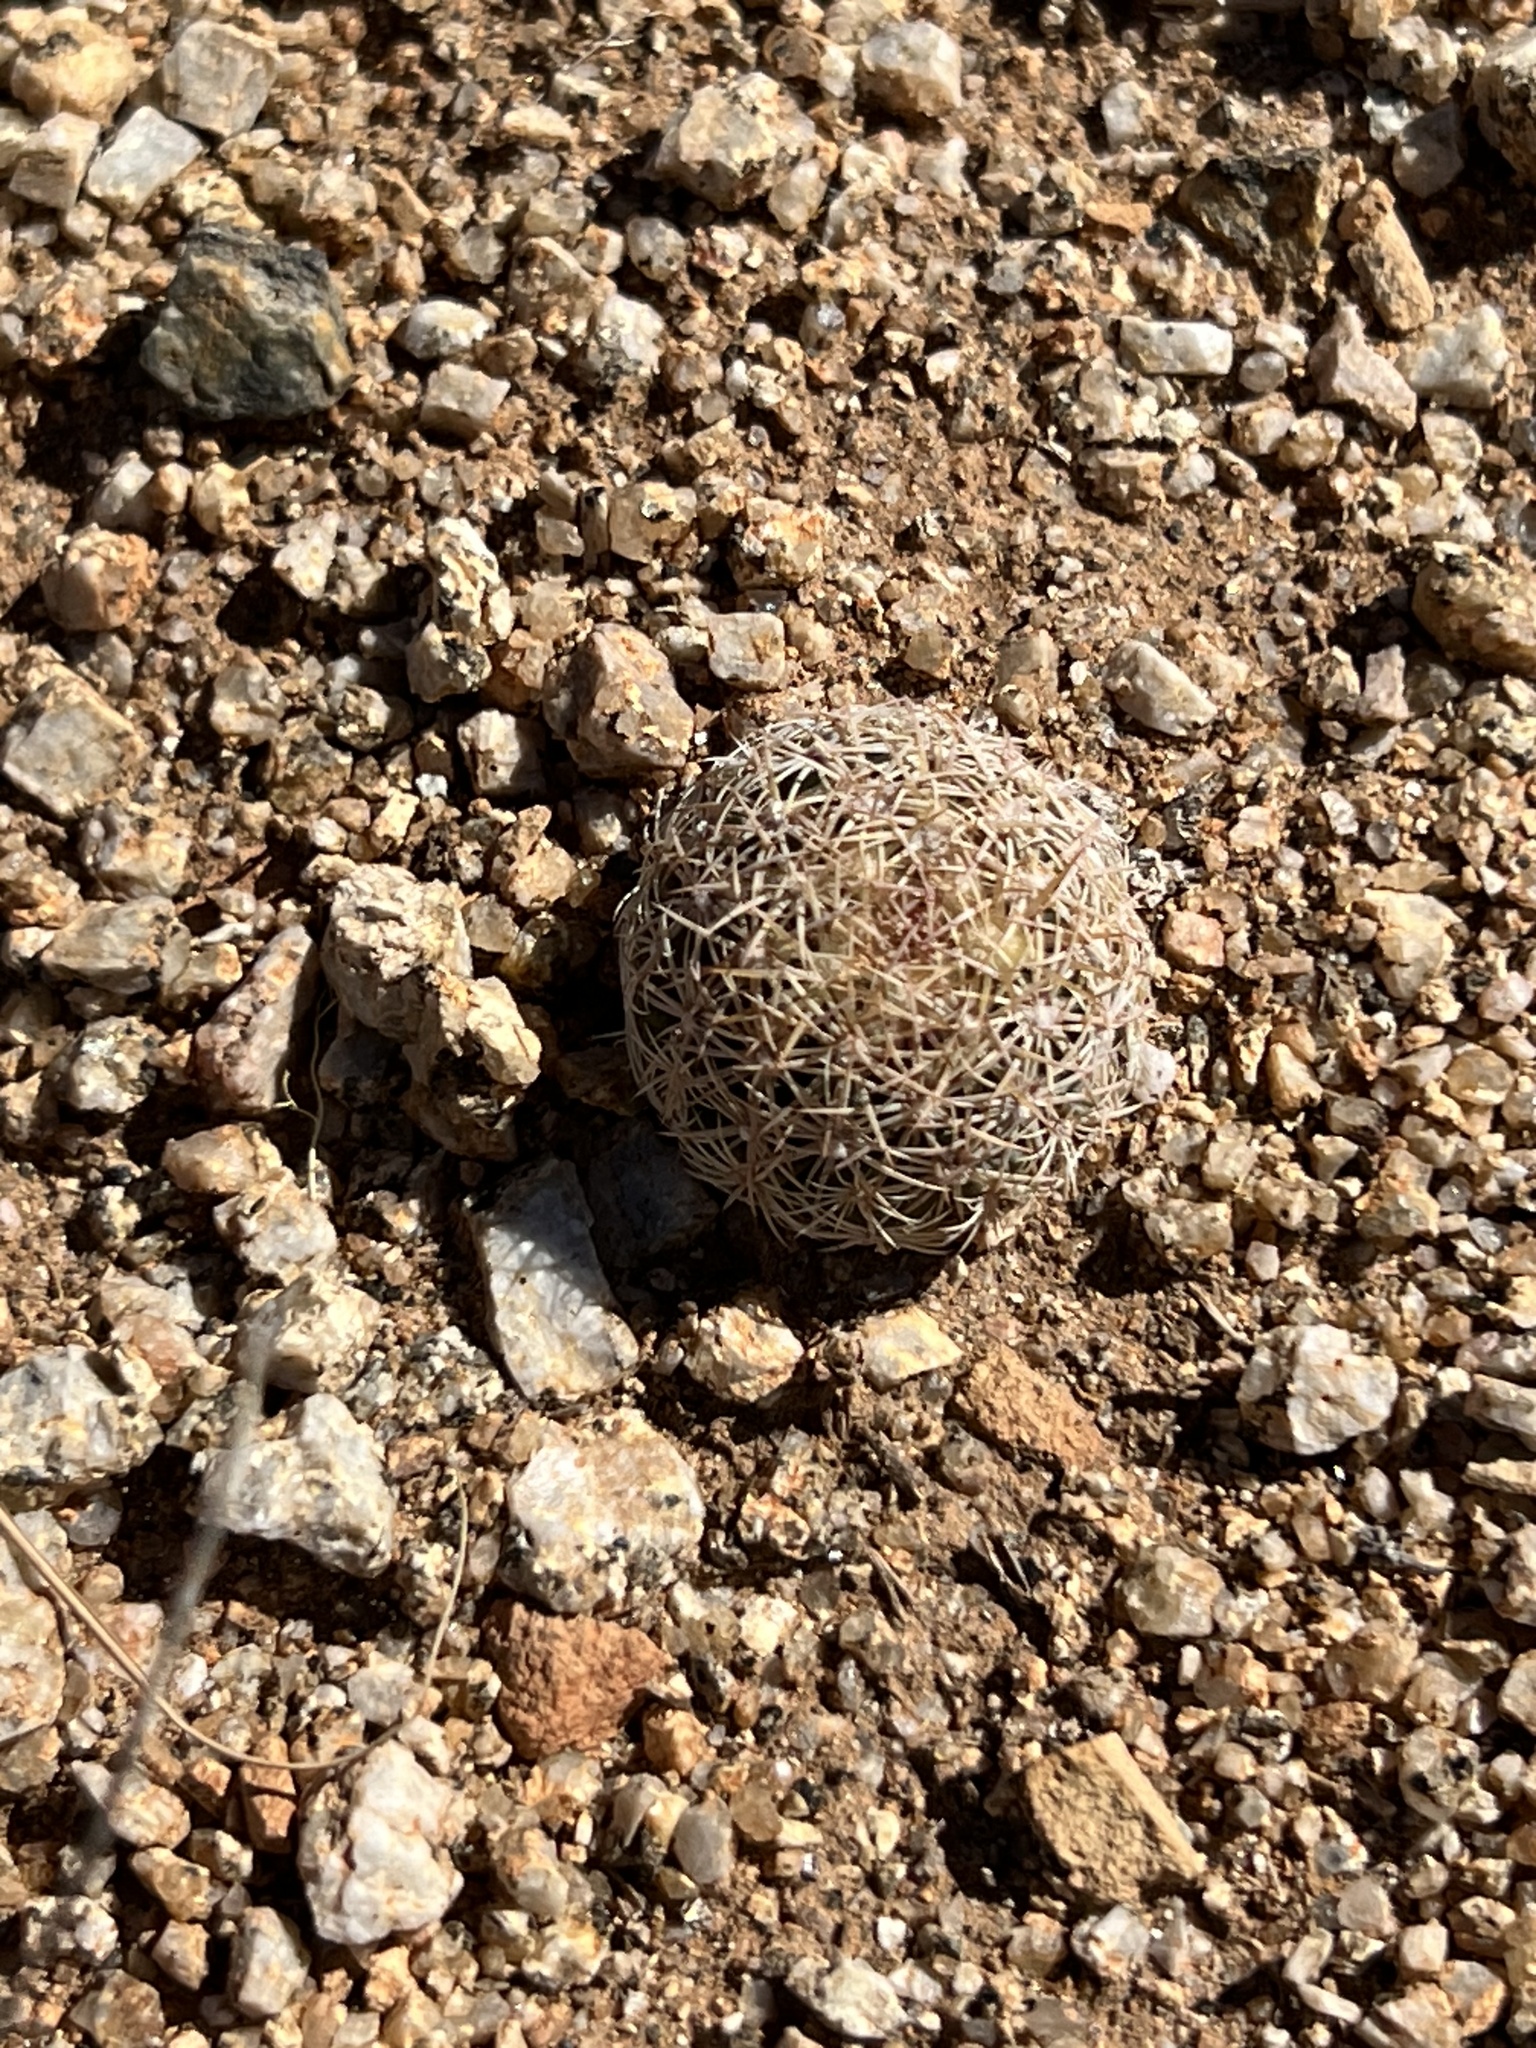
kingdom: Plantae
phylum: Tracheophyta
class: Magnoliopsida
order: Caryophyllales
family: Cactaceae
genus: Sclerocactus
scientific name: Sclerocactus intertextus
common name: White fish-hook cactus
